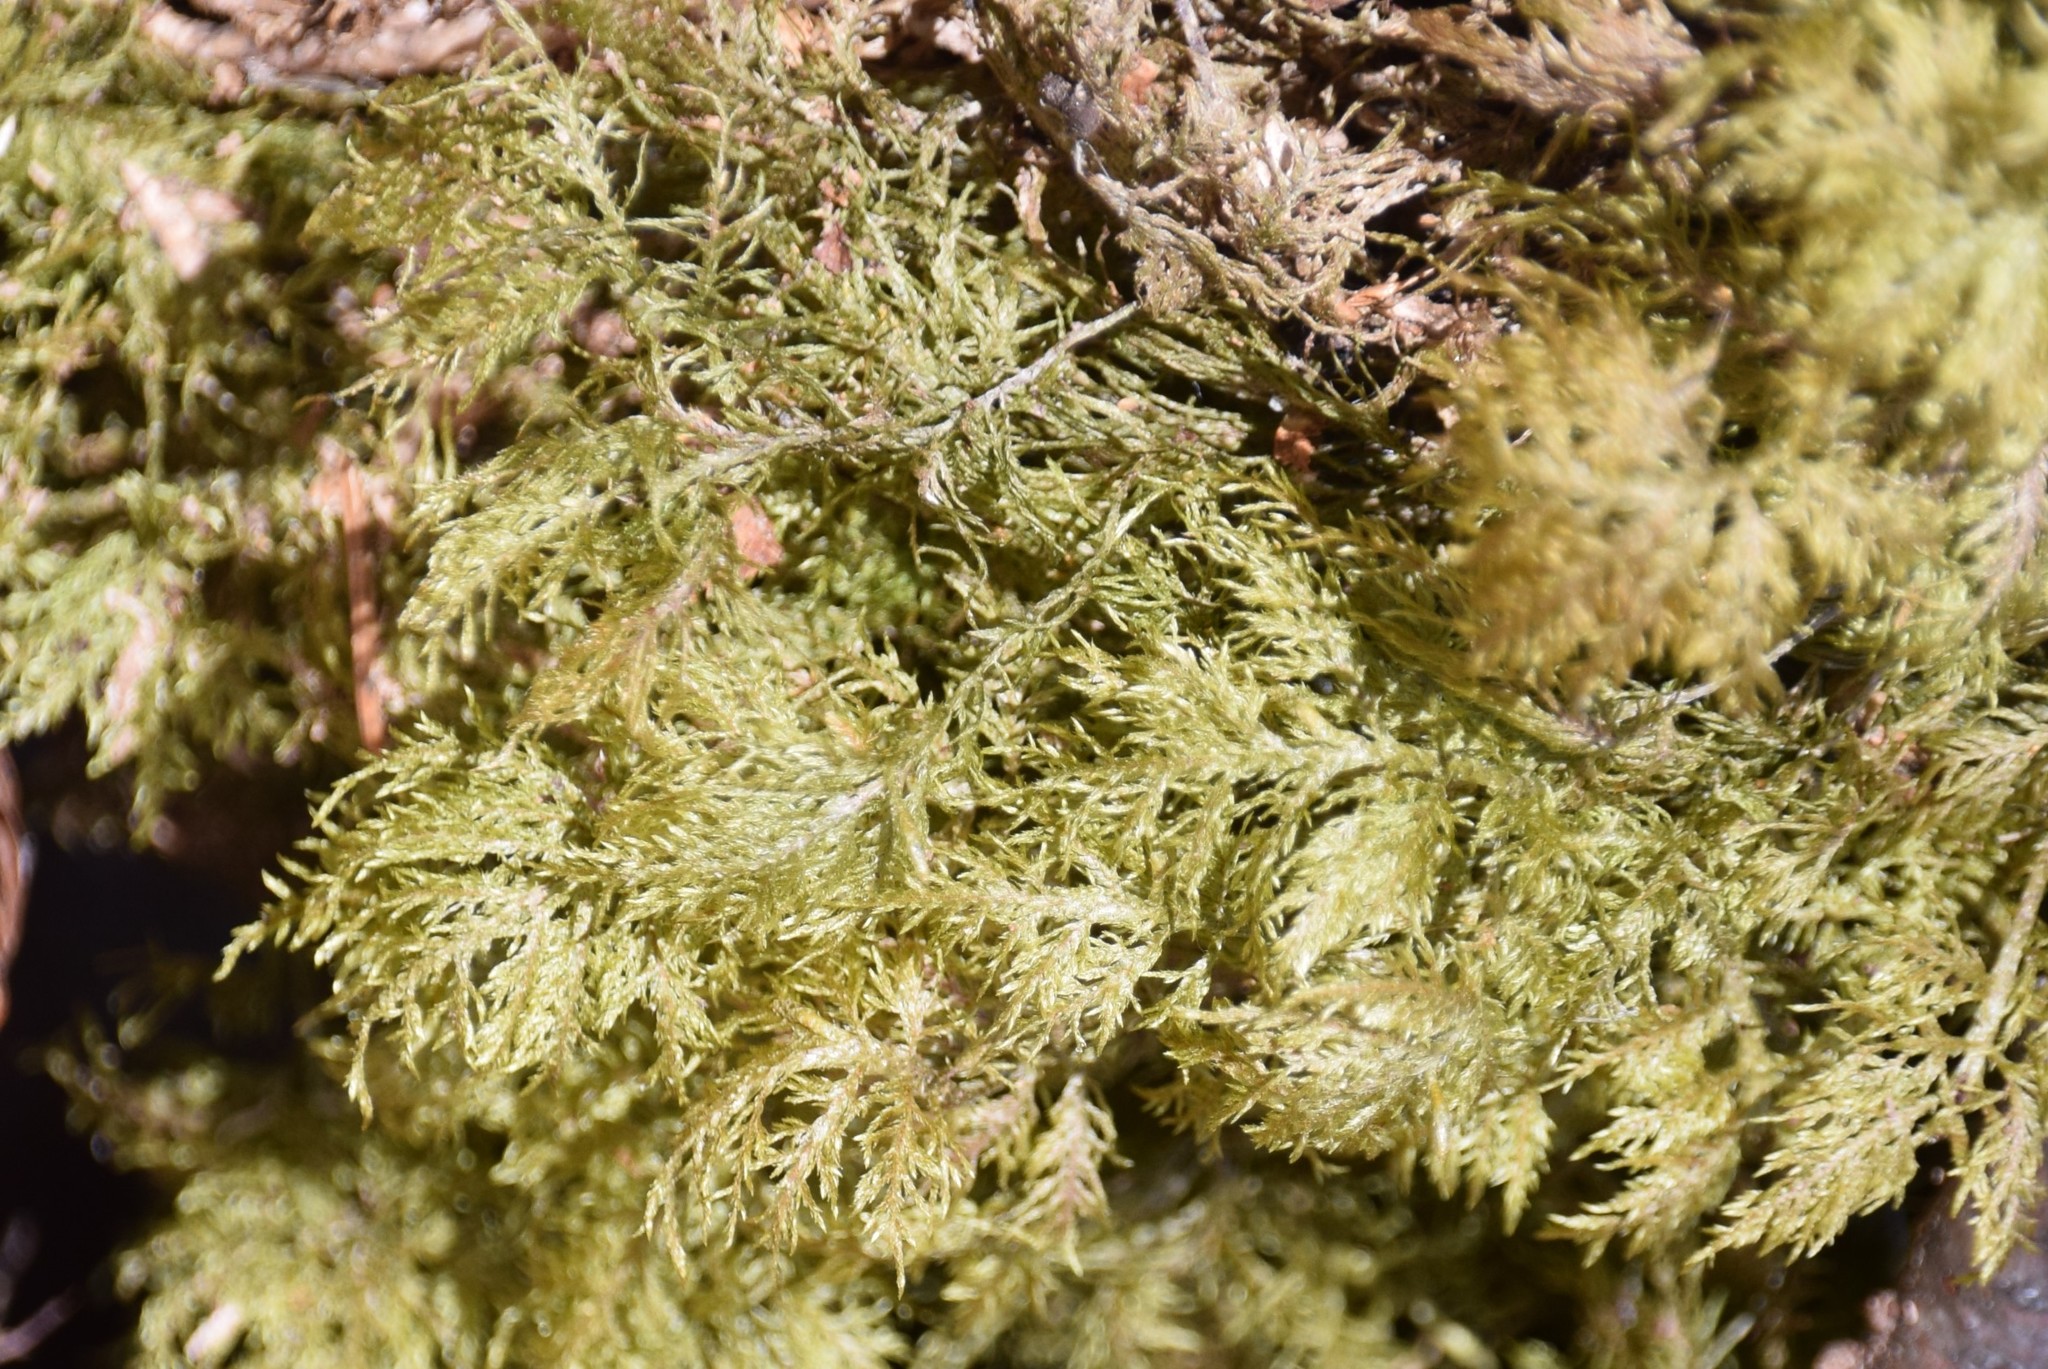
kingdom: Plantae
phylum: Bryophyta
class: Bryopsida
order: Hypnales
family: Hylocomiaceae
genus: Hylocomium
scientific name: Hylocomium splendens
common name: Stairstep moss
